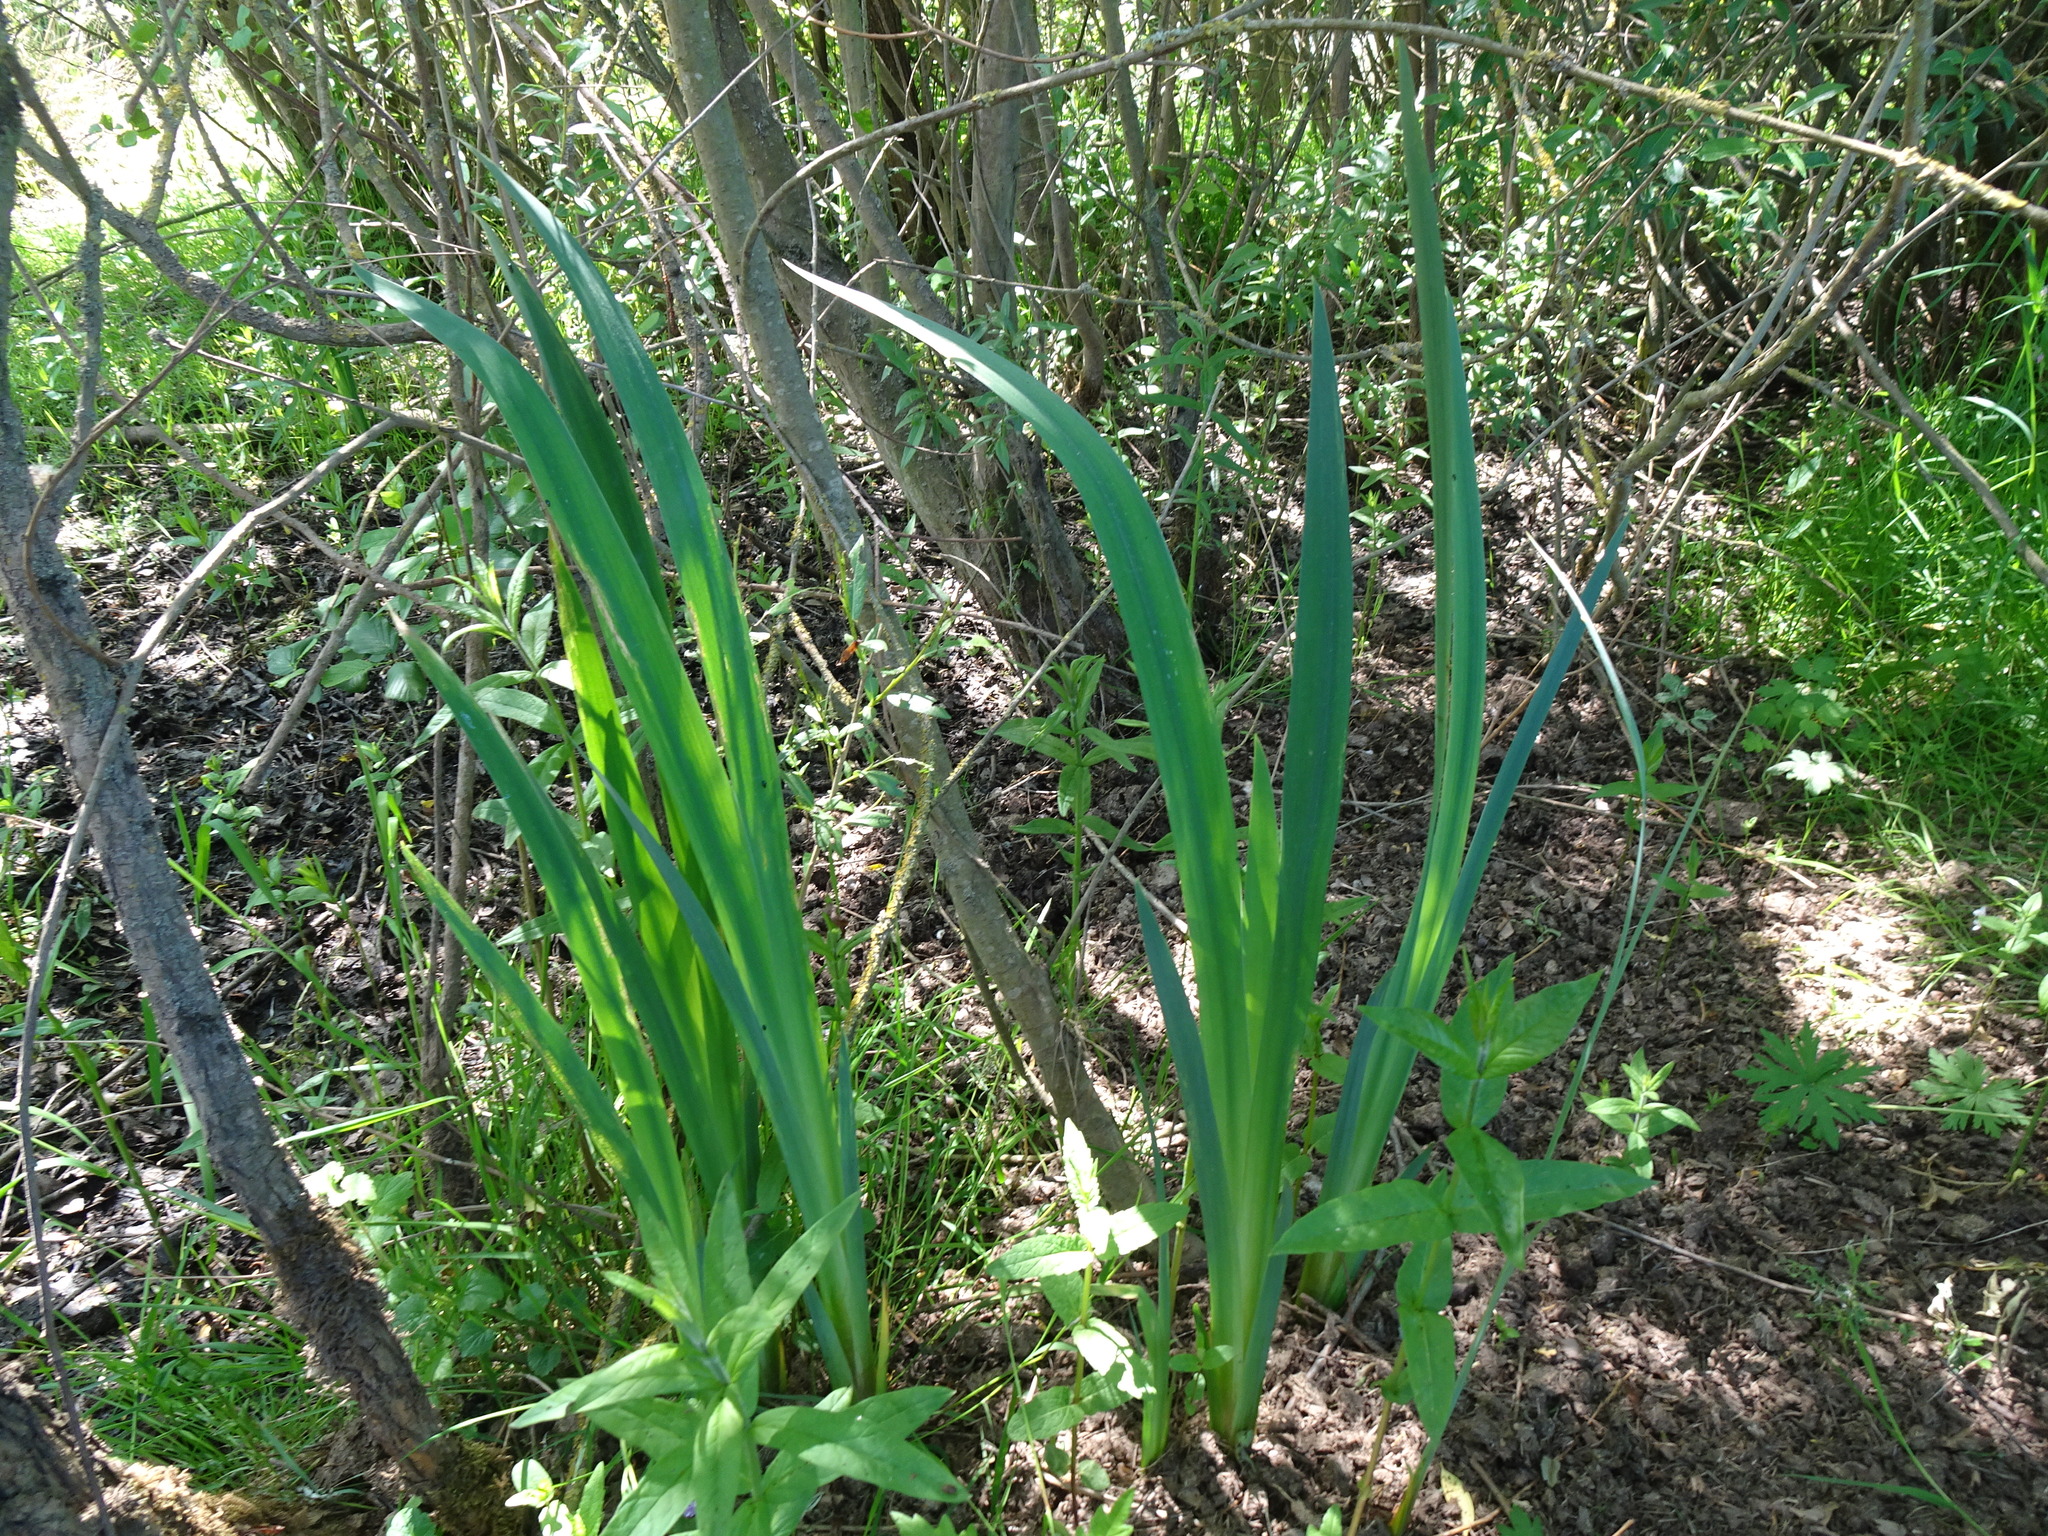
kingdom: Plantae
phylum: Tracheophyta
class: Liliopsida
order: Asparagales
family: Iridaceae
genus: Iris
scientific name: Iris pseudacorus
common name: Yellow flag
